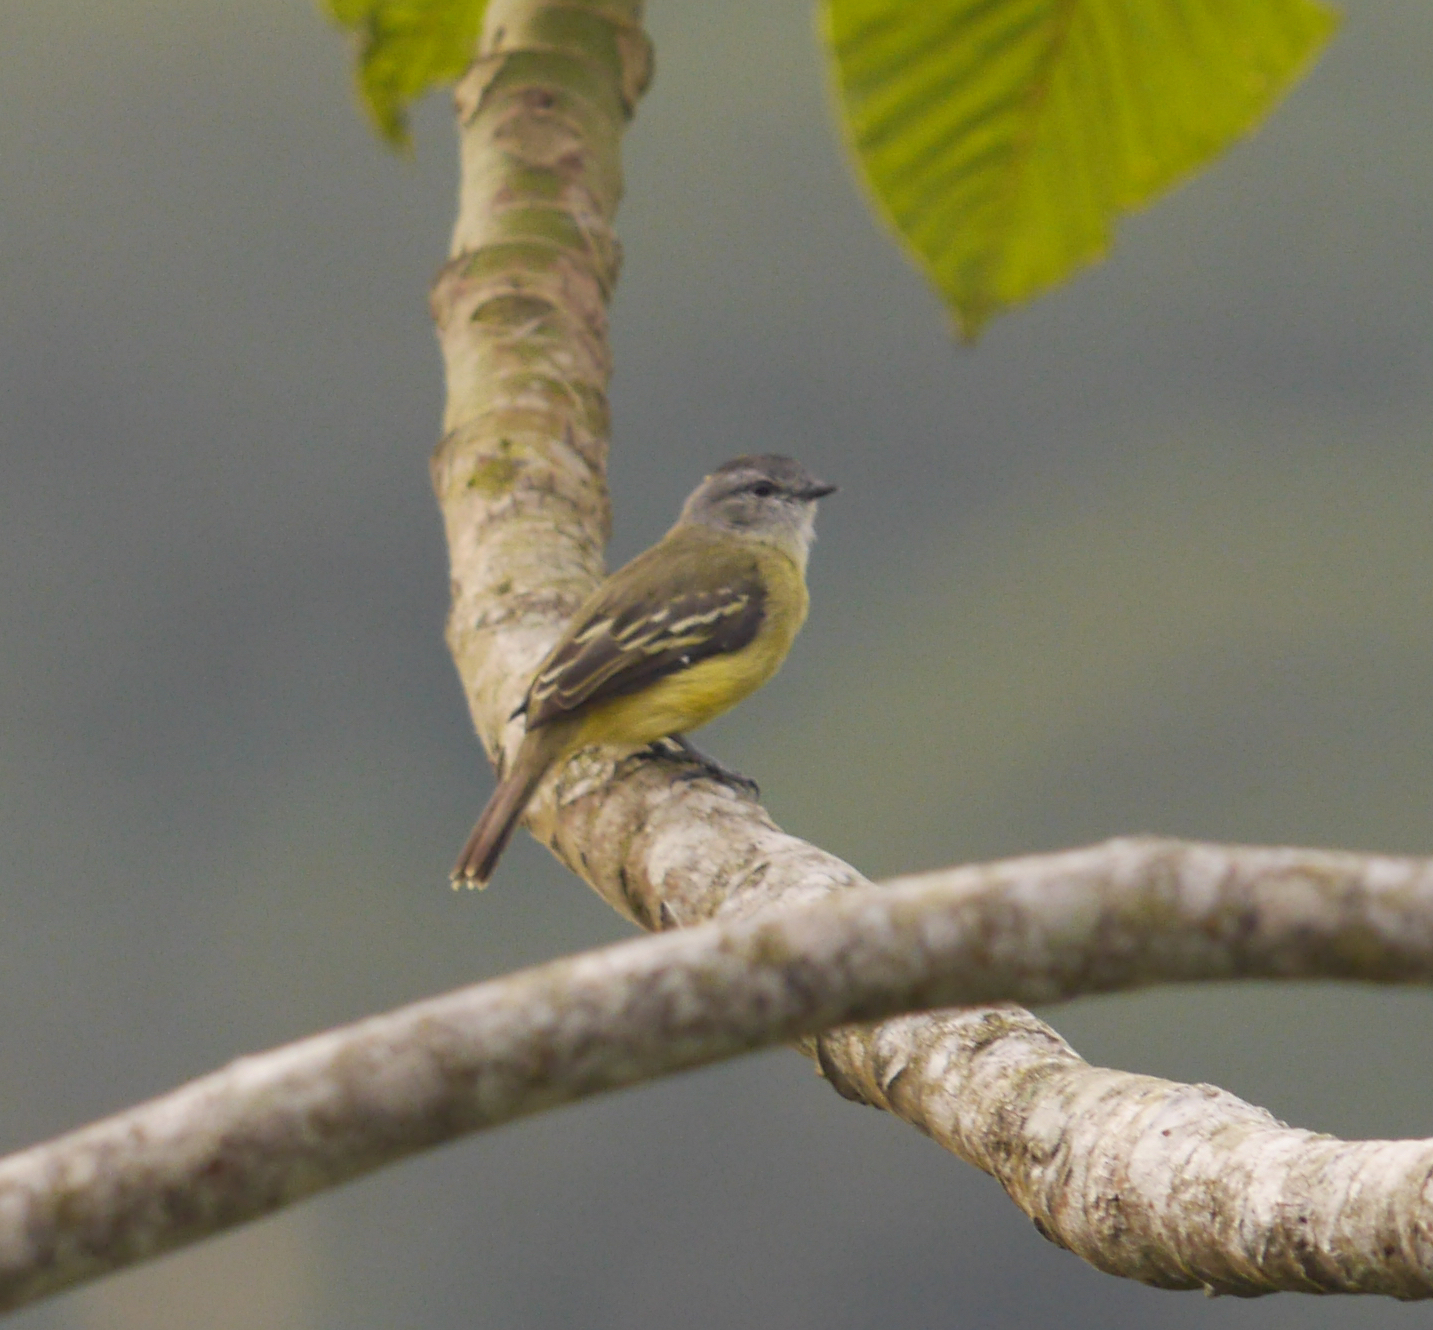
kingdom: Animalia
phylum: Chordata
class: Aves
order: Passeriformes
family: Tyrannidae
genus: Tyrannulus
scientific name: Tyrannulus elatus
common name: Yellow-crowned tyrannulet
